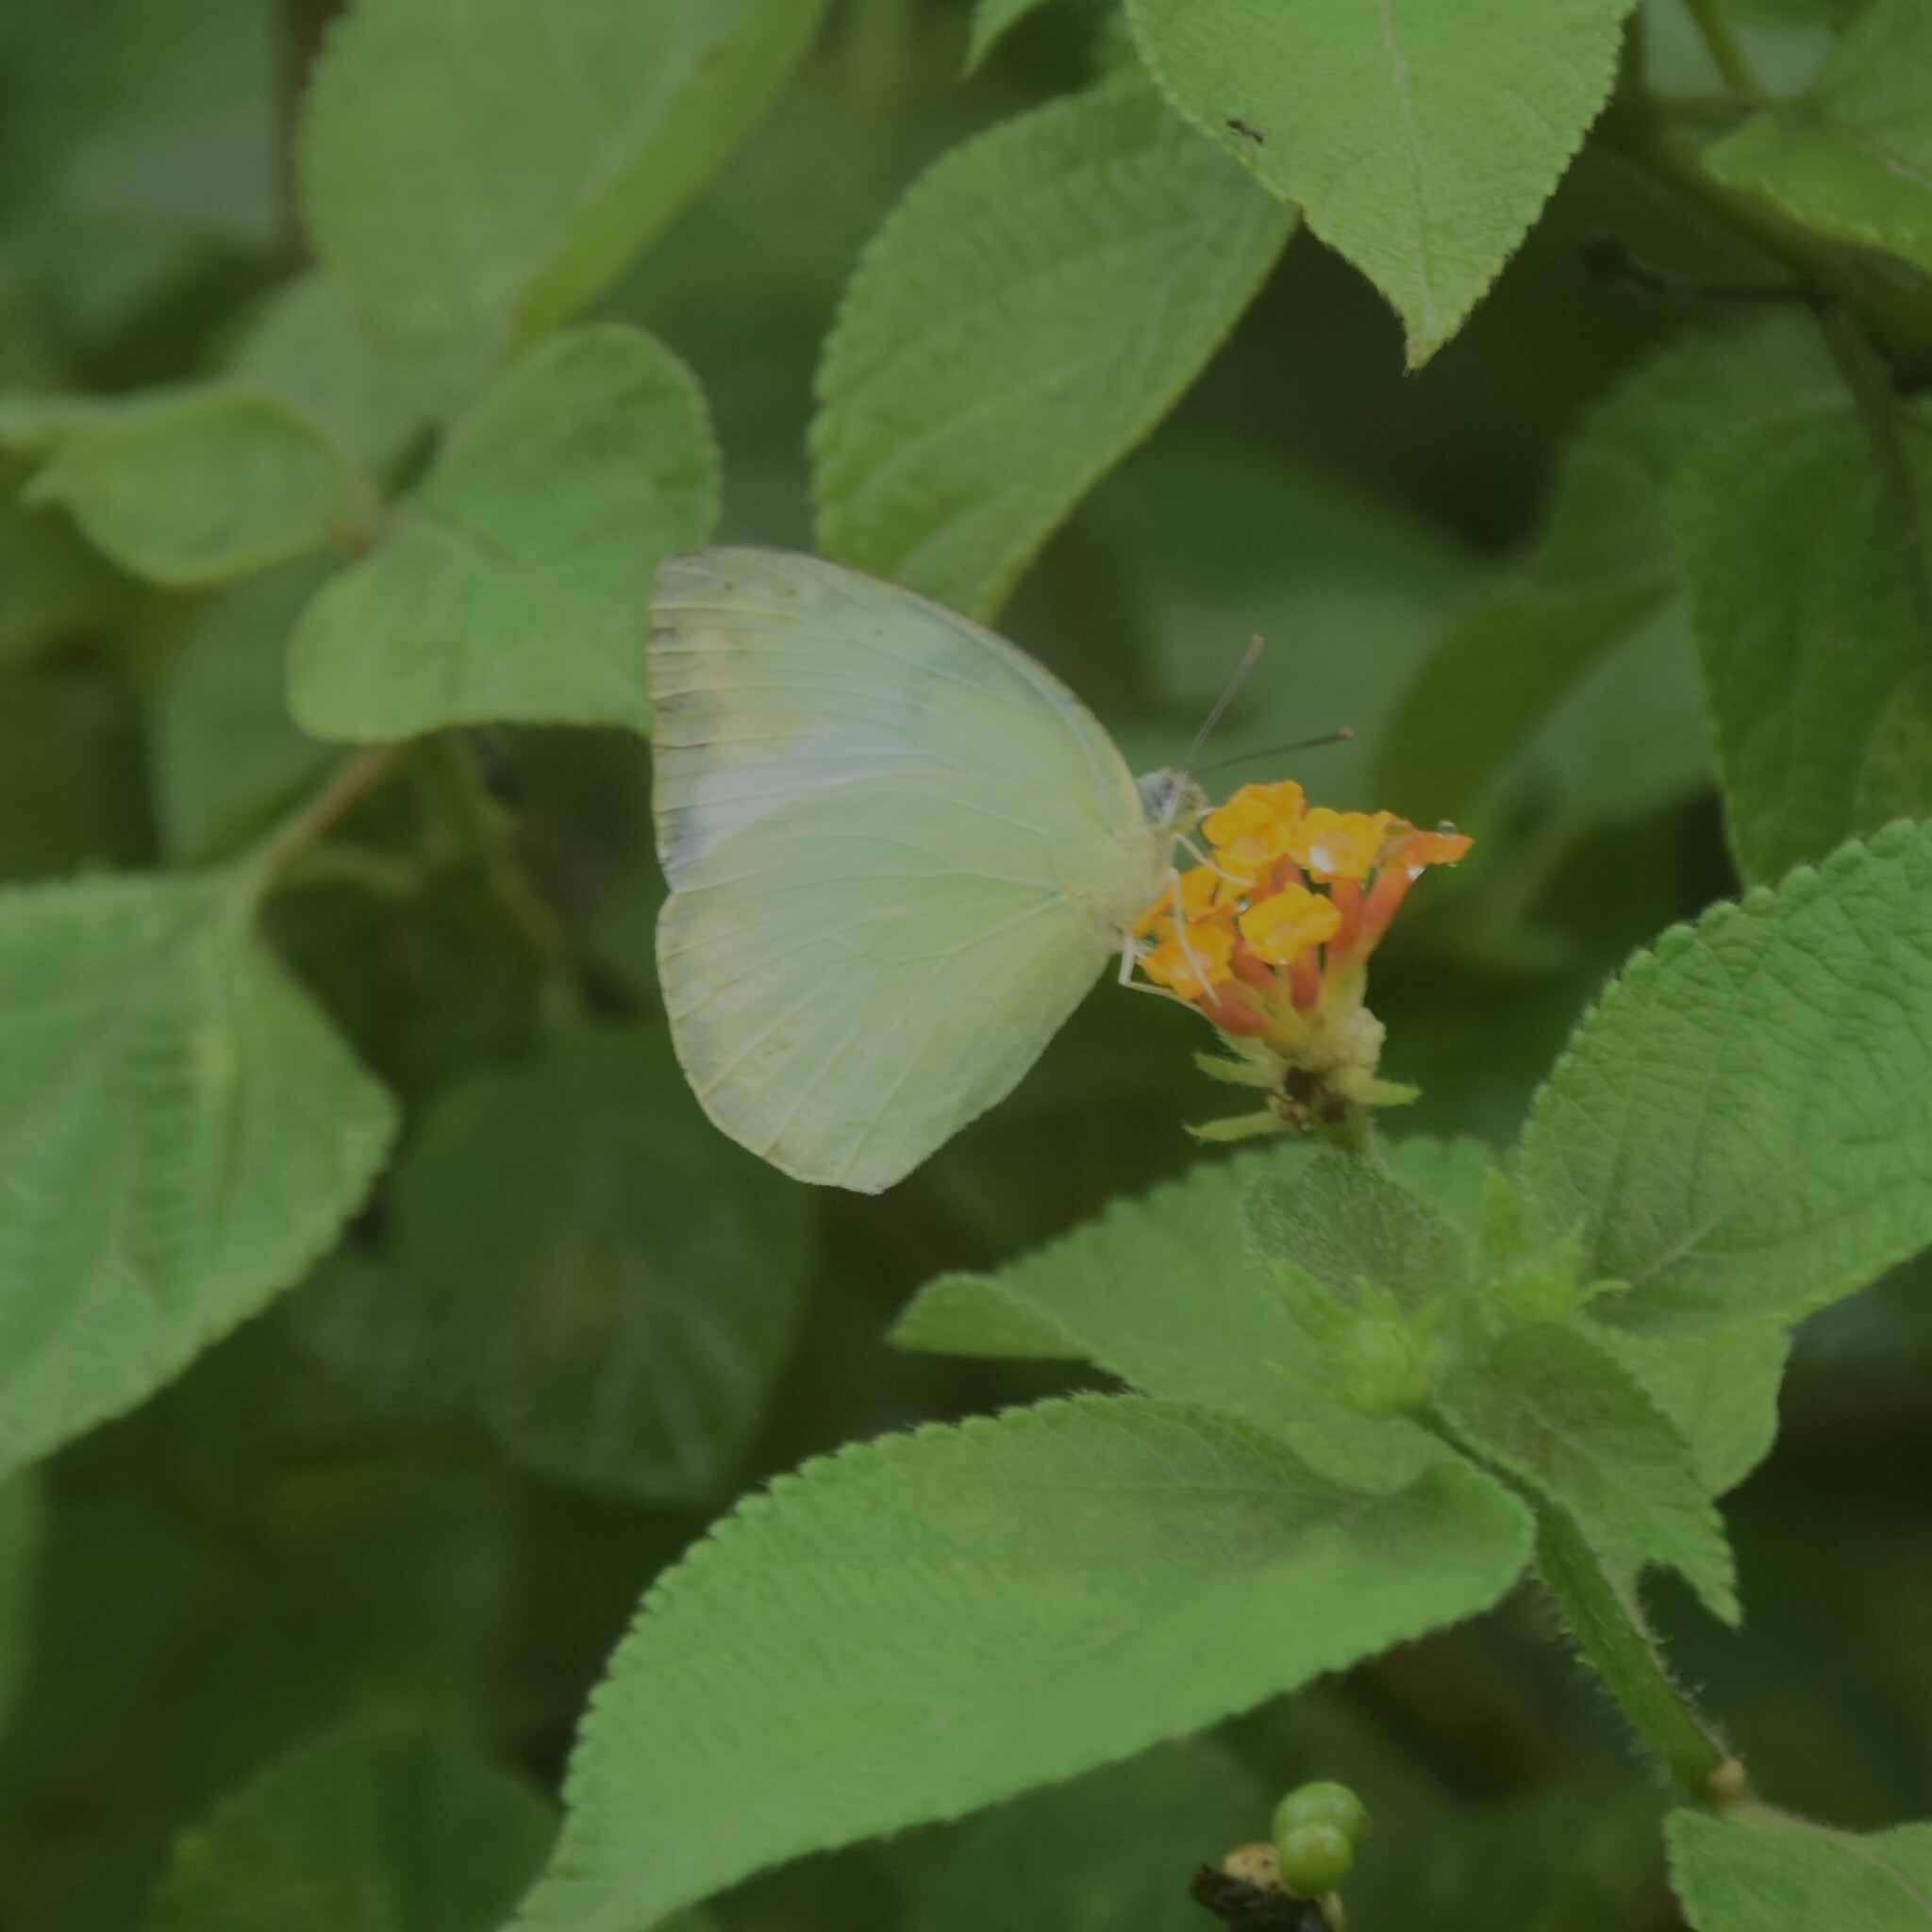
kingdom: Animalia
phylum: Arthropoda
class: Insecta
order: Lepidoptera
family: Pieridae
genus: Catopsilia
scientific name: Catopsilia pomona
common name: Common emigrant
